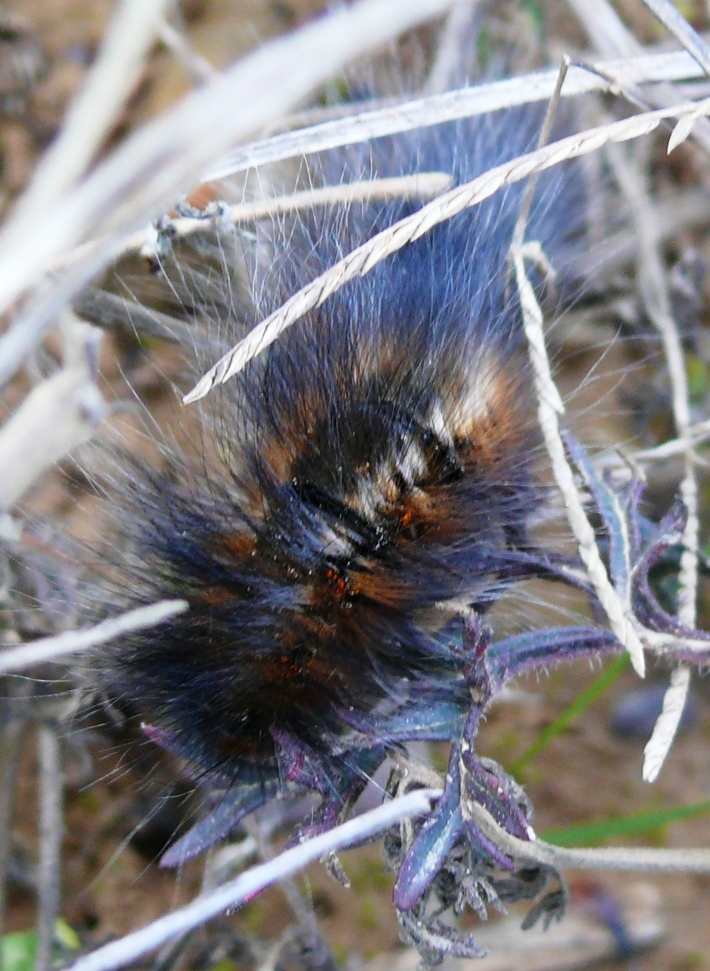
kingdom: Animalia
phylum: Arthropoda
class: Insecta
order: Lepidoptera
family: Lasiocampidae
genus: Mesocelis
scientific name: Mesocelis monticola
